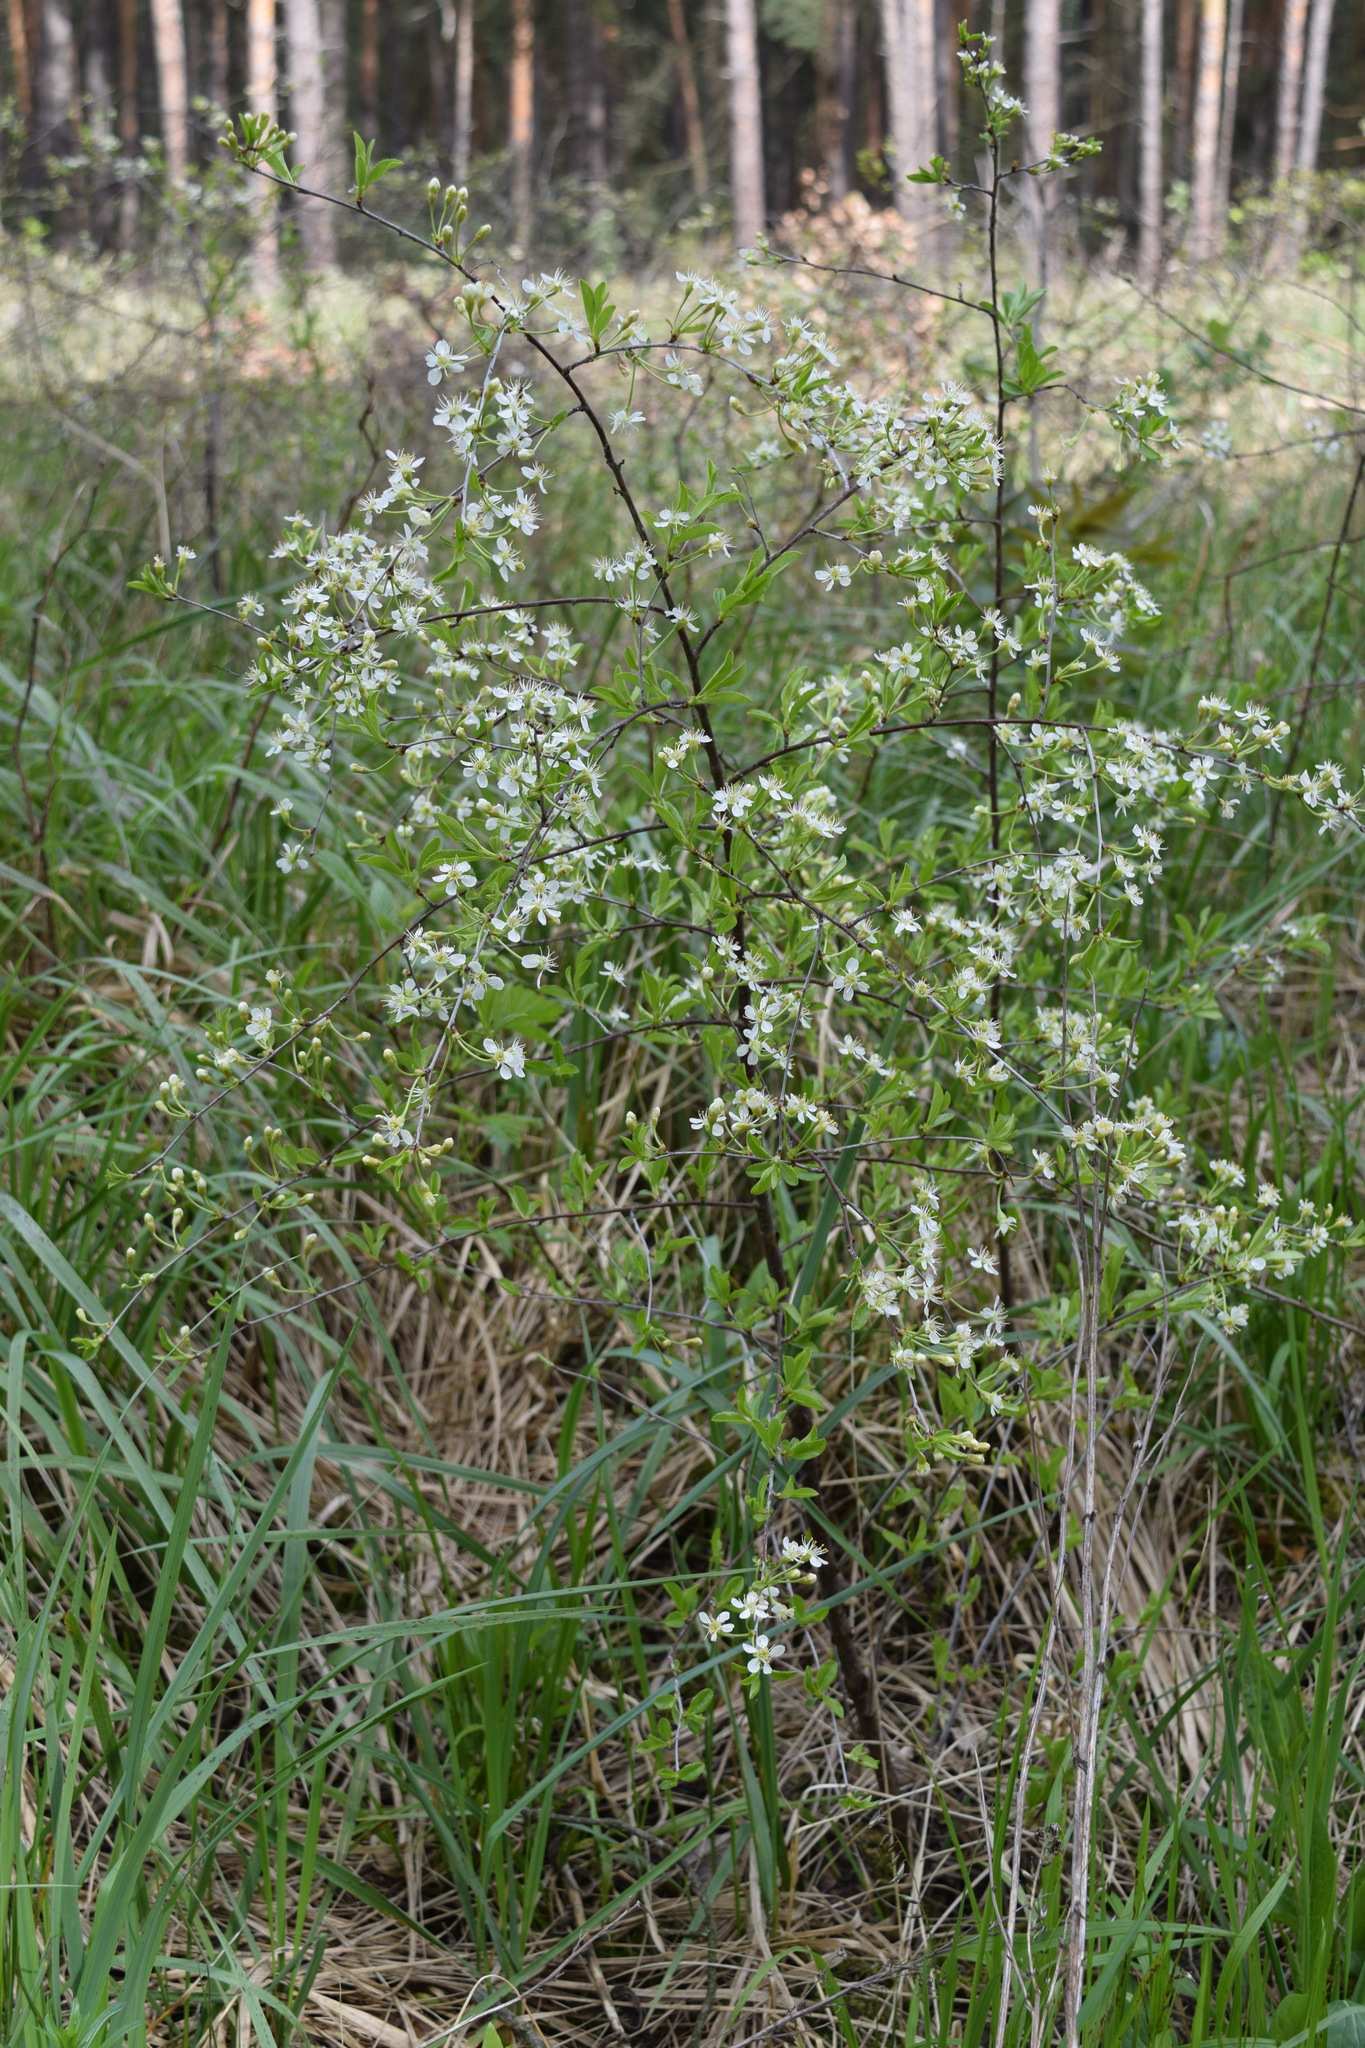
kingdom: Plantae
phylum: Tracheophyta
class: Magnoliopsida
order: Rosales
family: Rosaceae
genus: Prunus
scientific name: Prunus fruticosa
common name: European dwarf cherry
